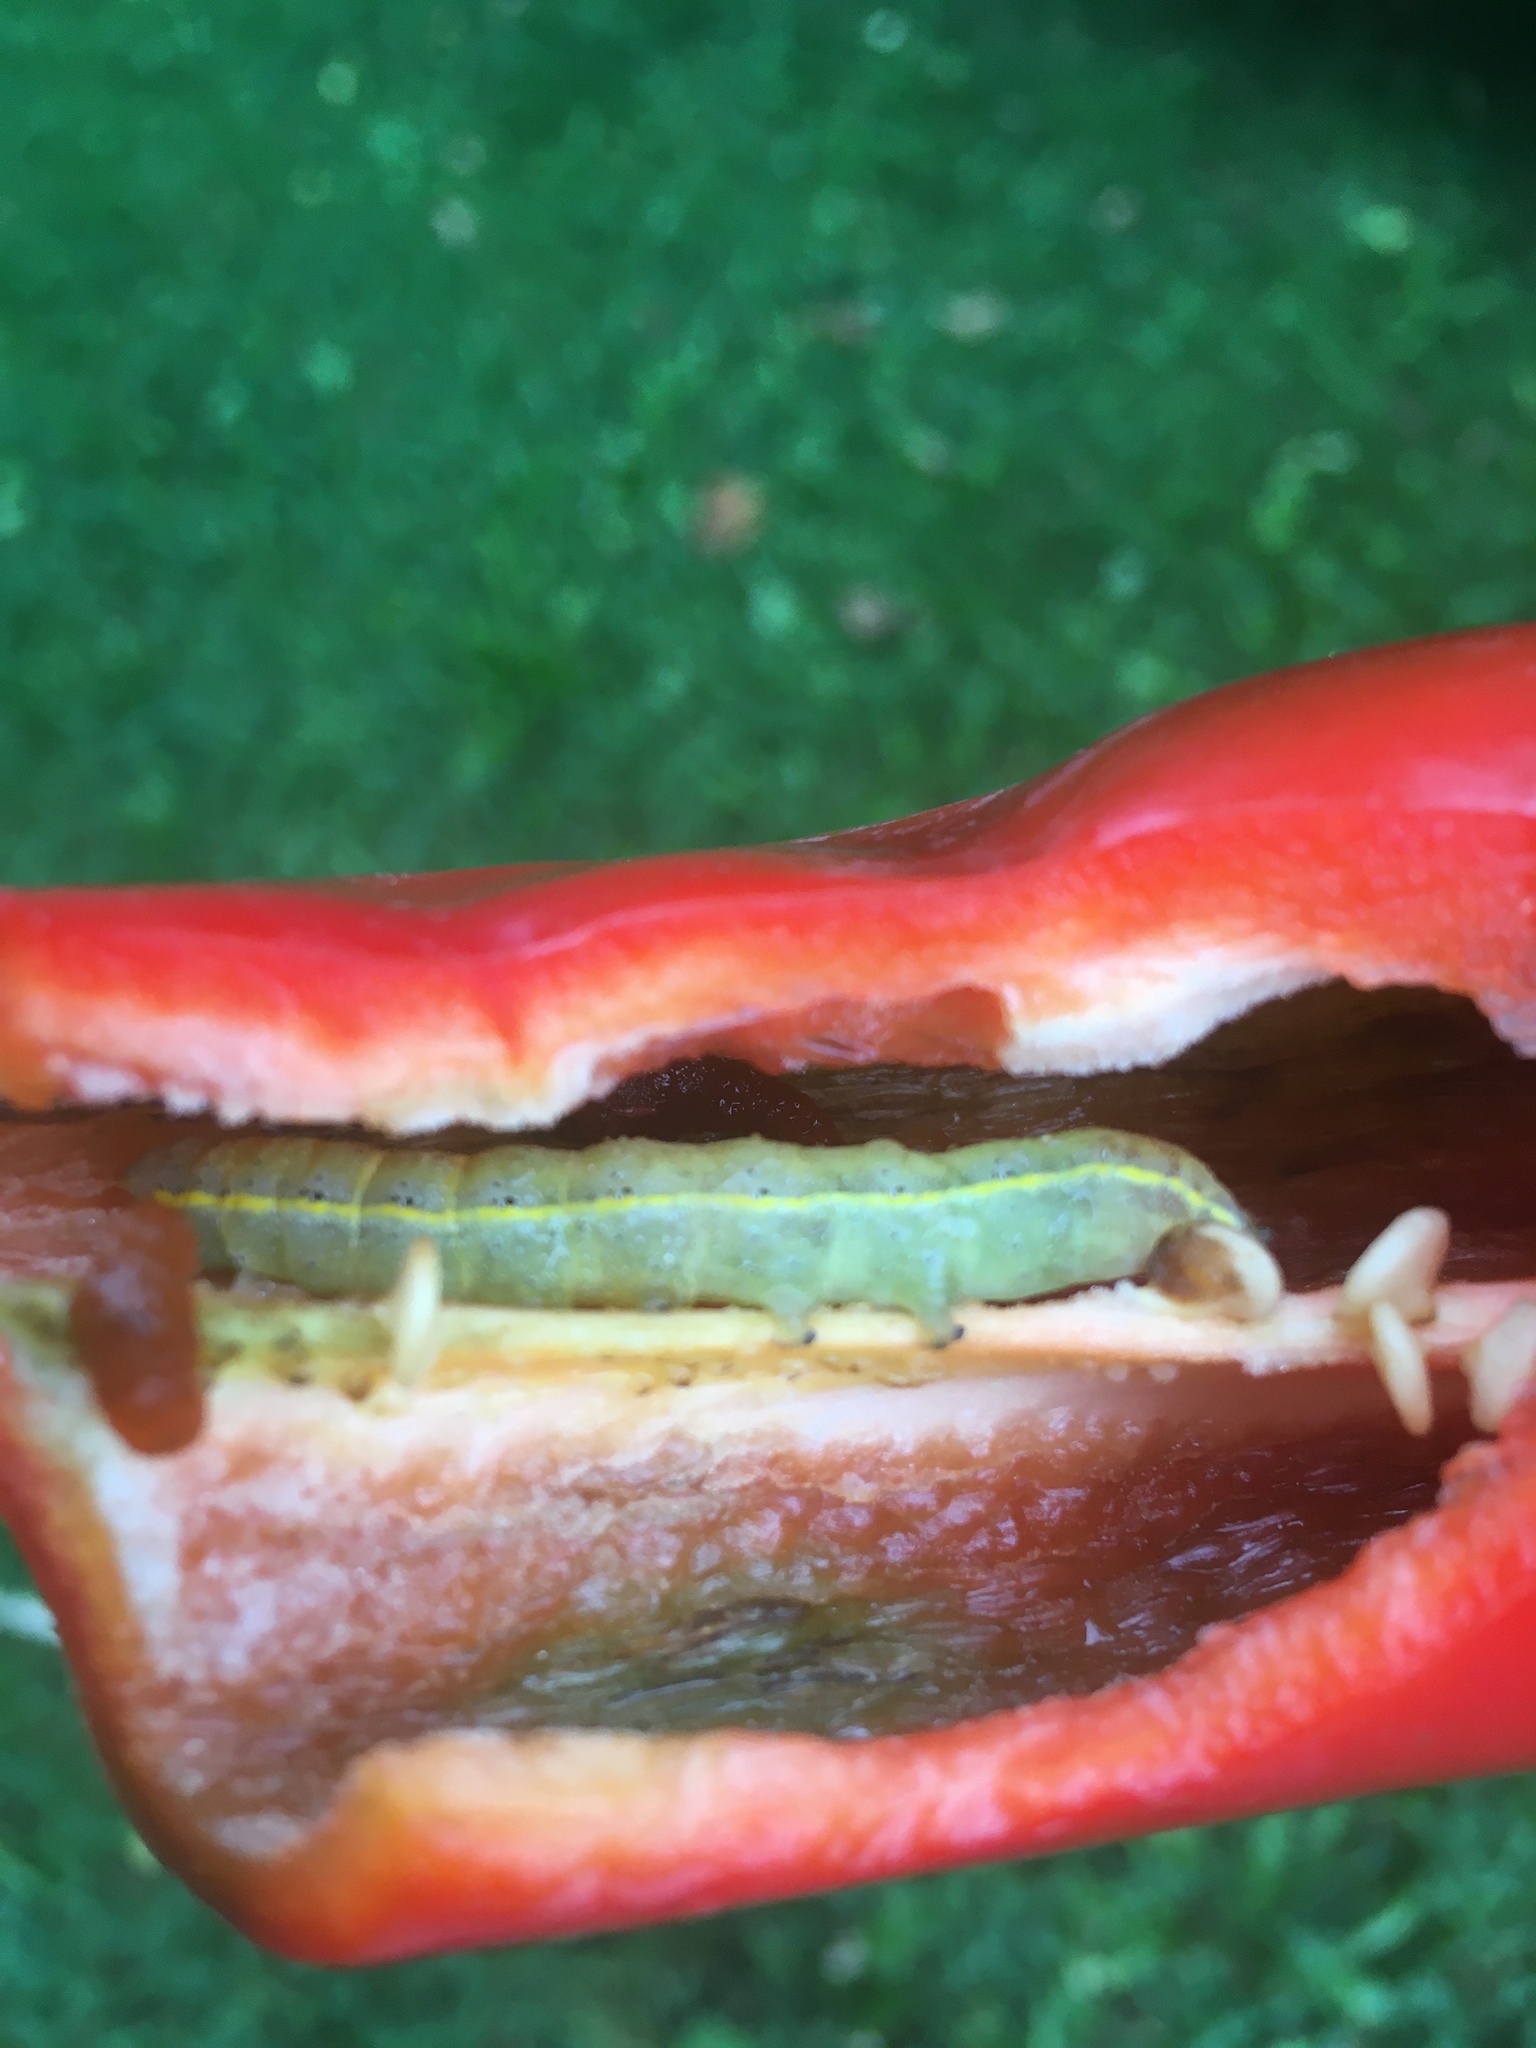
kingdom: Animalia
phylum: Arthropoda
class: Insecta
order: Lepidoptera
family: Noctuidae
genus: Lacanobia
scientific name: Lacanobia oleracea
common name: Bright-line brown-eye
